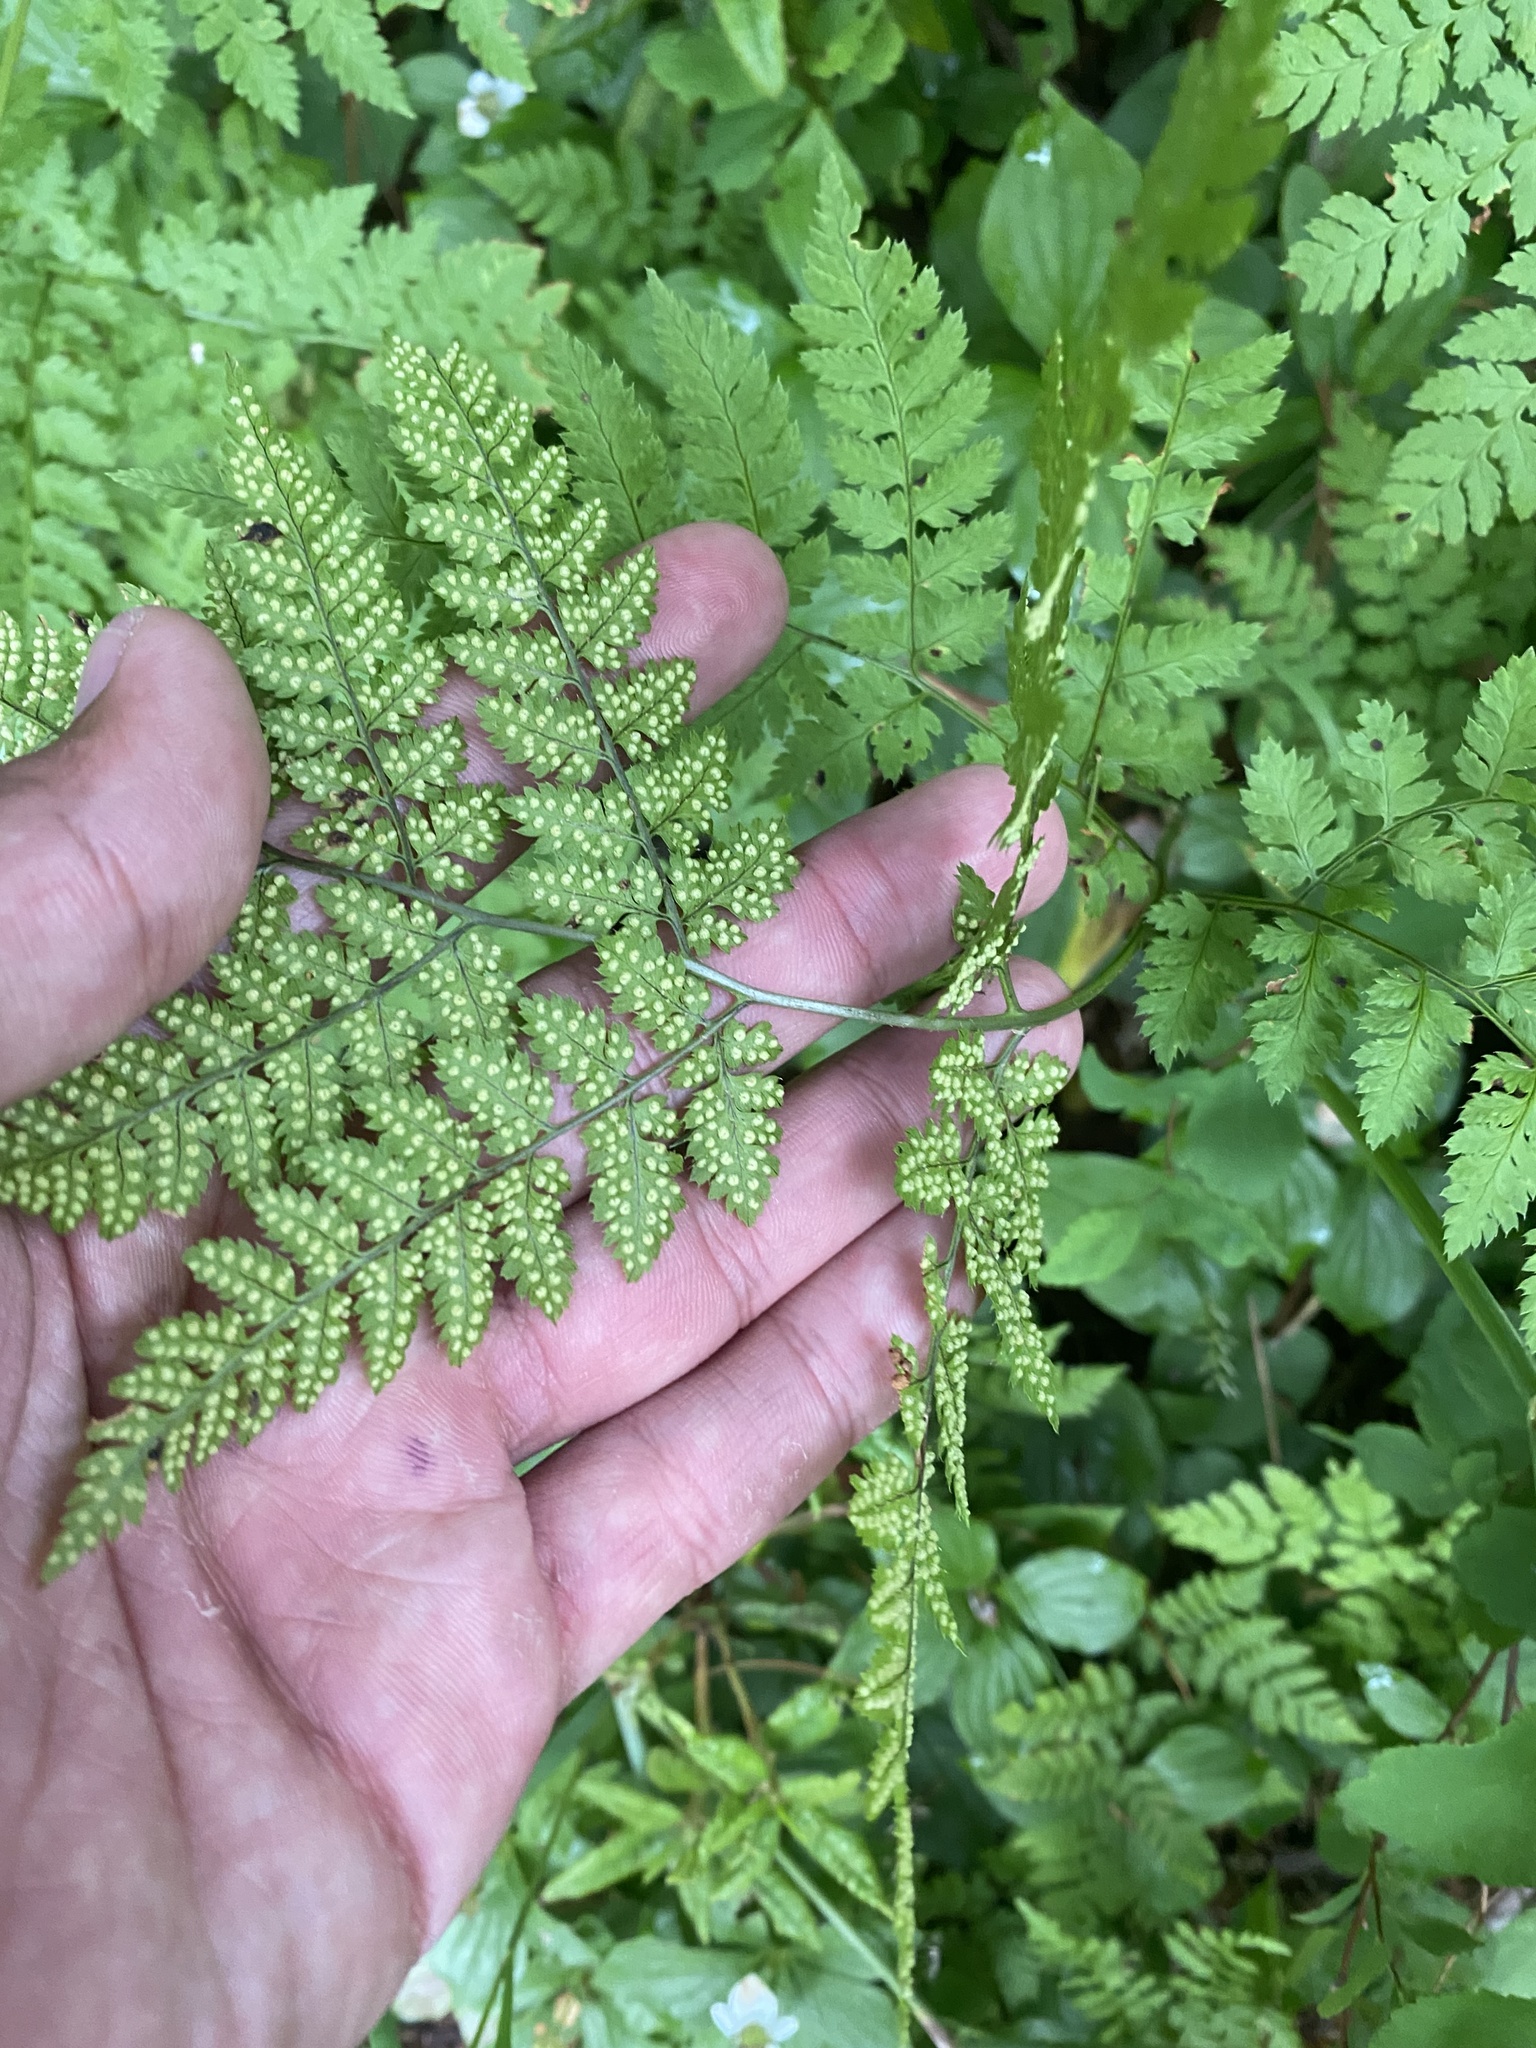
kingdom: Plantae
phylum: Tracheophyta
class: Polypodiopsida
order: Polypodiales
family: Dryopteridaceae
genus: Dryopteris
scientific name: Dryopteris amurensis
